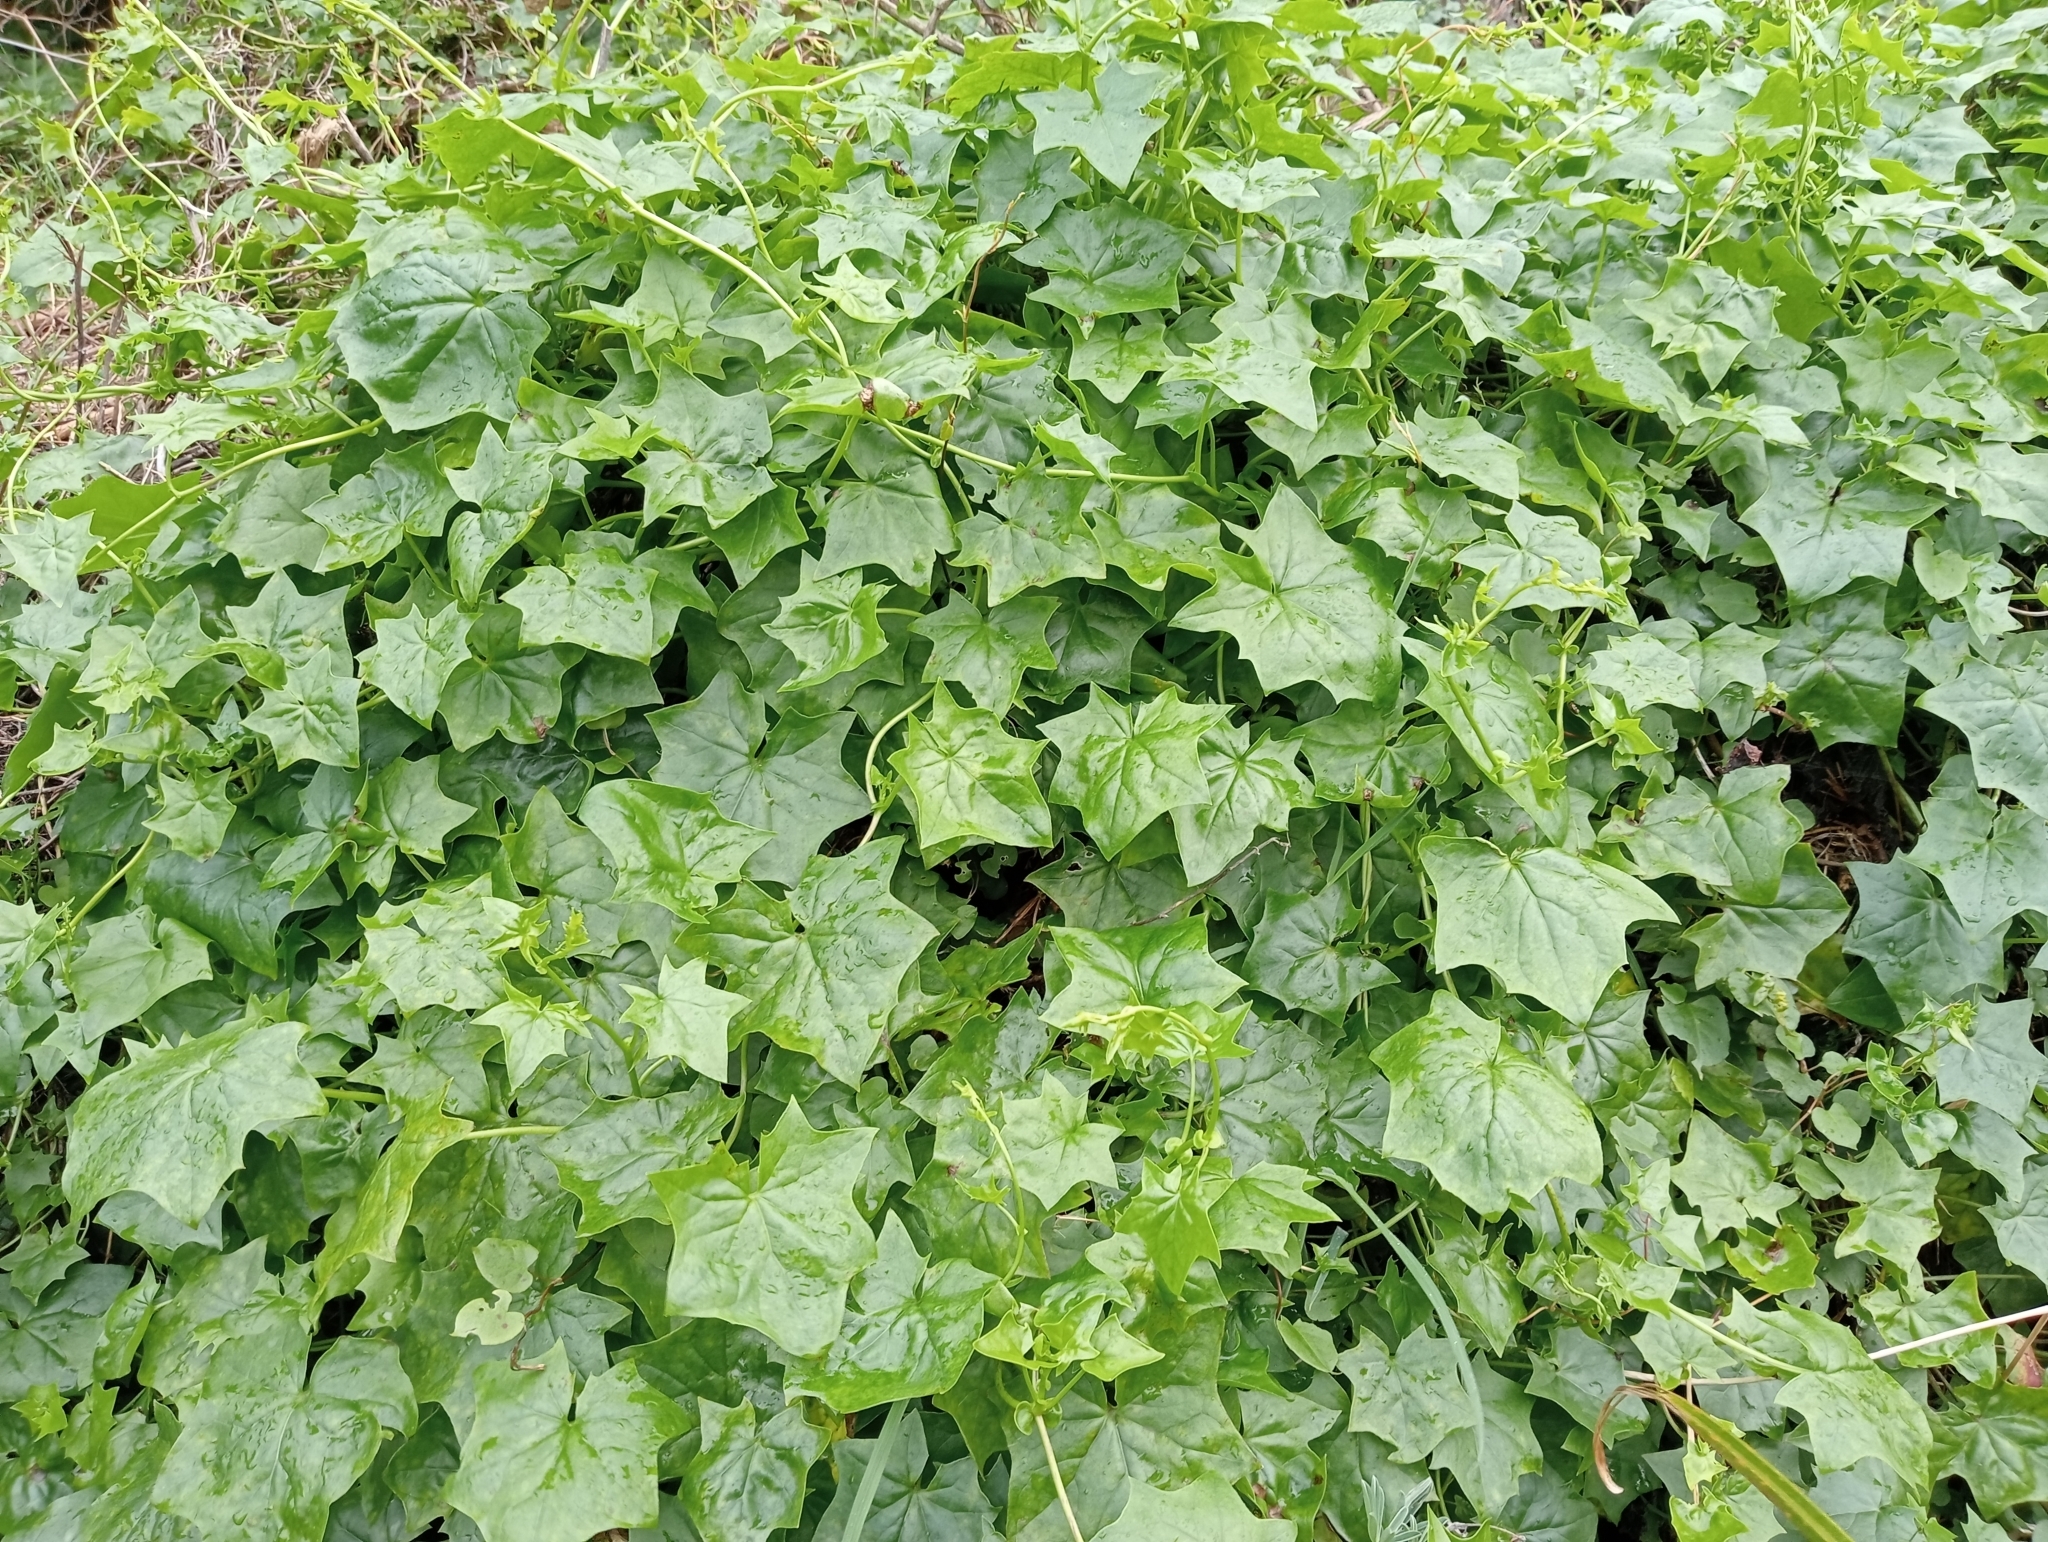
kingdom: Plantae
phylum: Tracheophyta
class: Magnoliopsida
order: Asterales
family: Asteraceae
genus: Delairea
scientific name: Delairea odorata
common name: Cape-ivy
